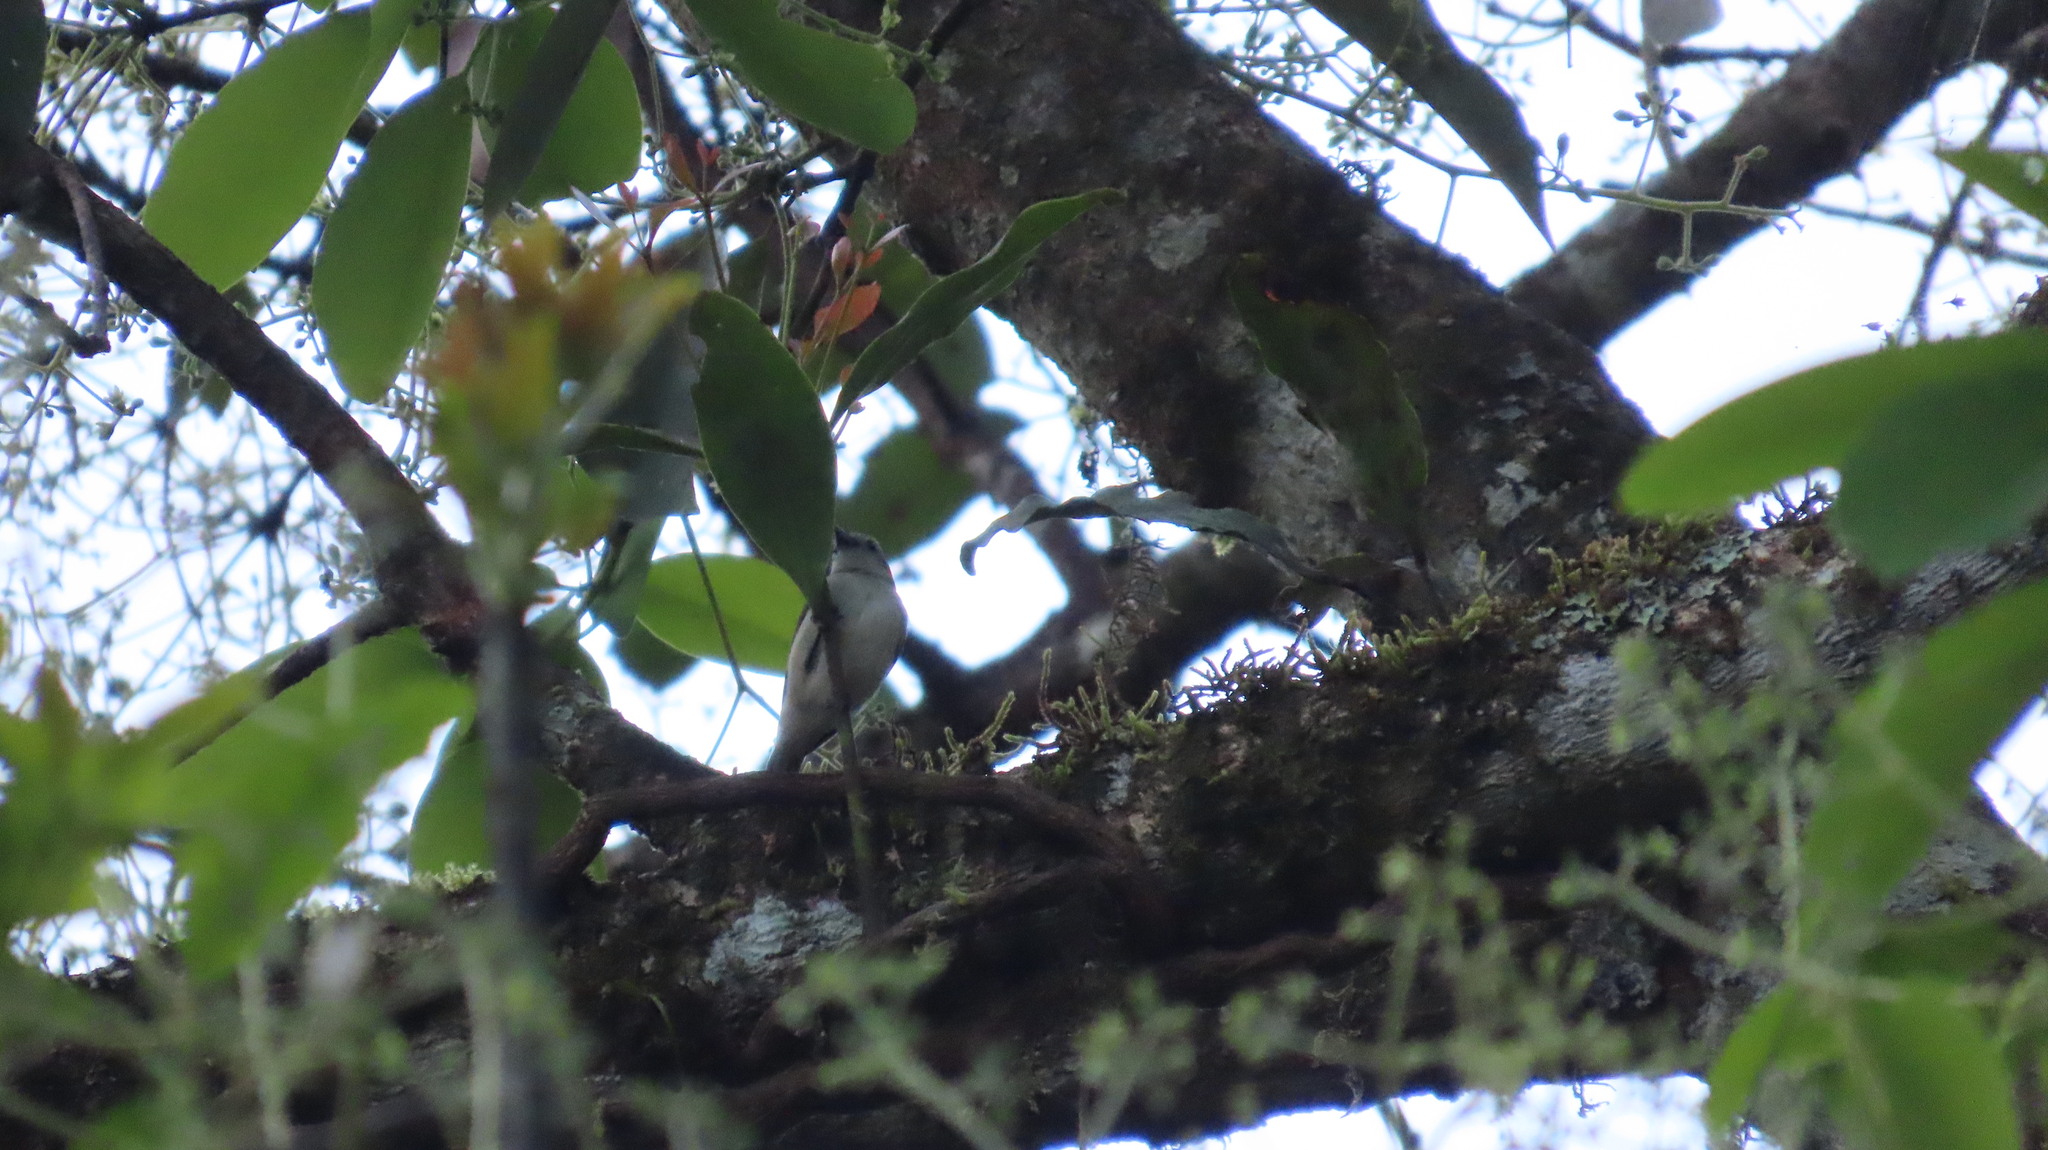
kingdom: Animalia
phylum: Chordata
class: Aves
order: Passeriformes
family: Dicaeidae
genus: Dicaeum
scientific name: Dicaeum concolor
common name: Nilgiri flowerpecker
